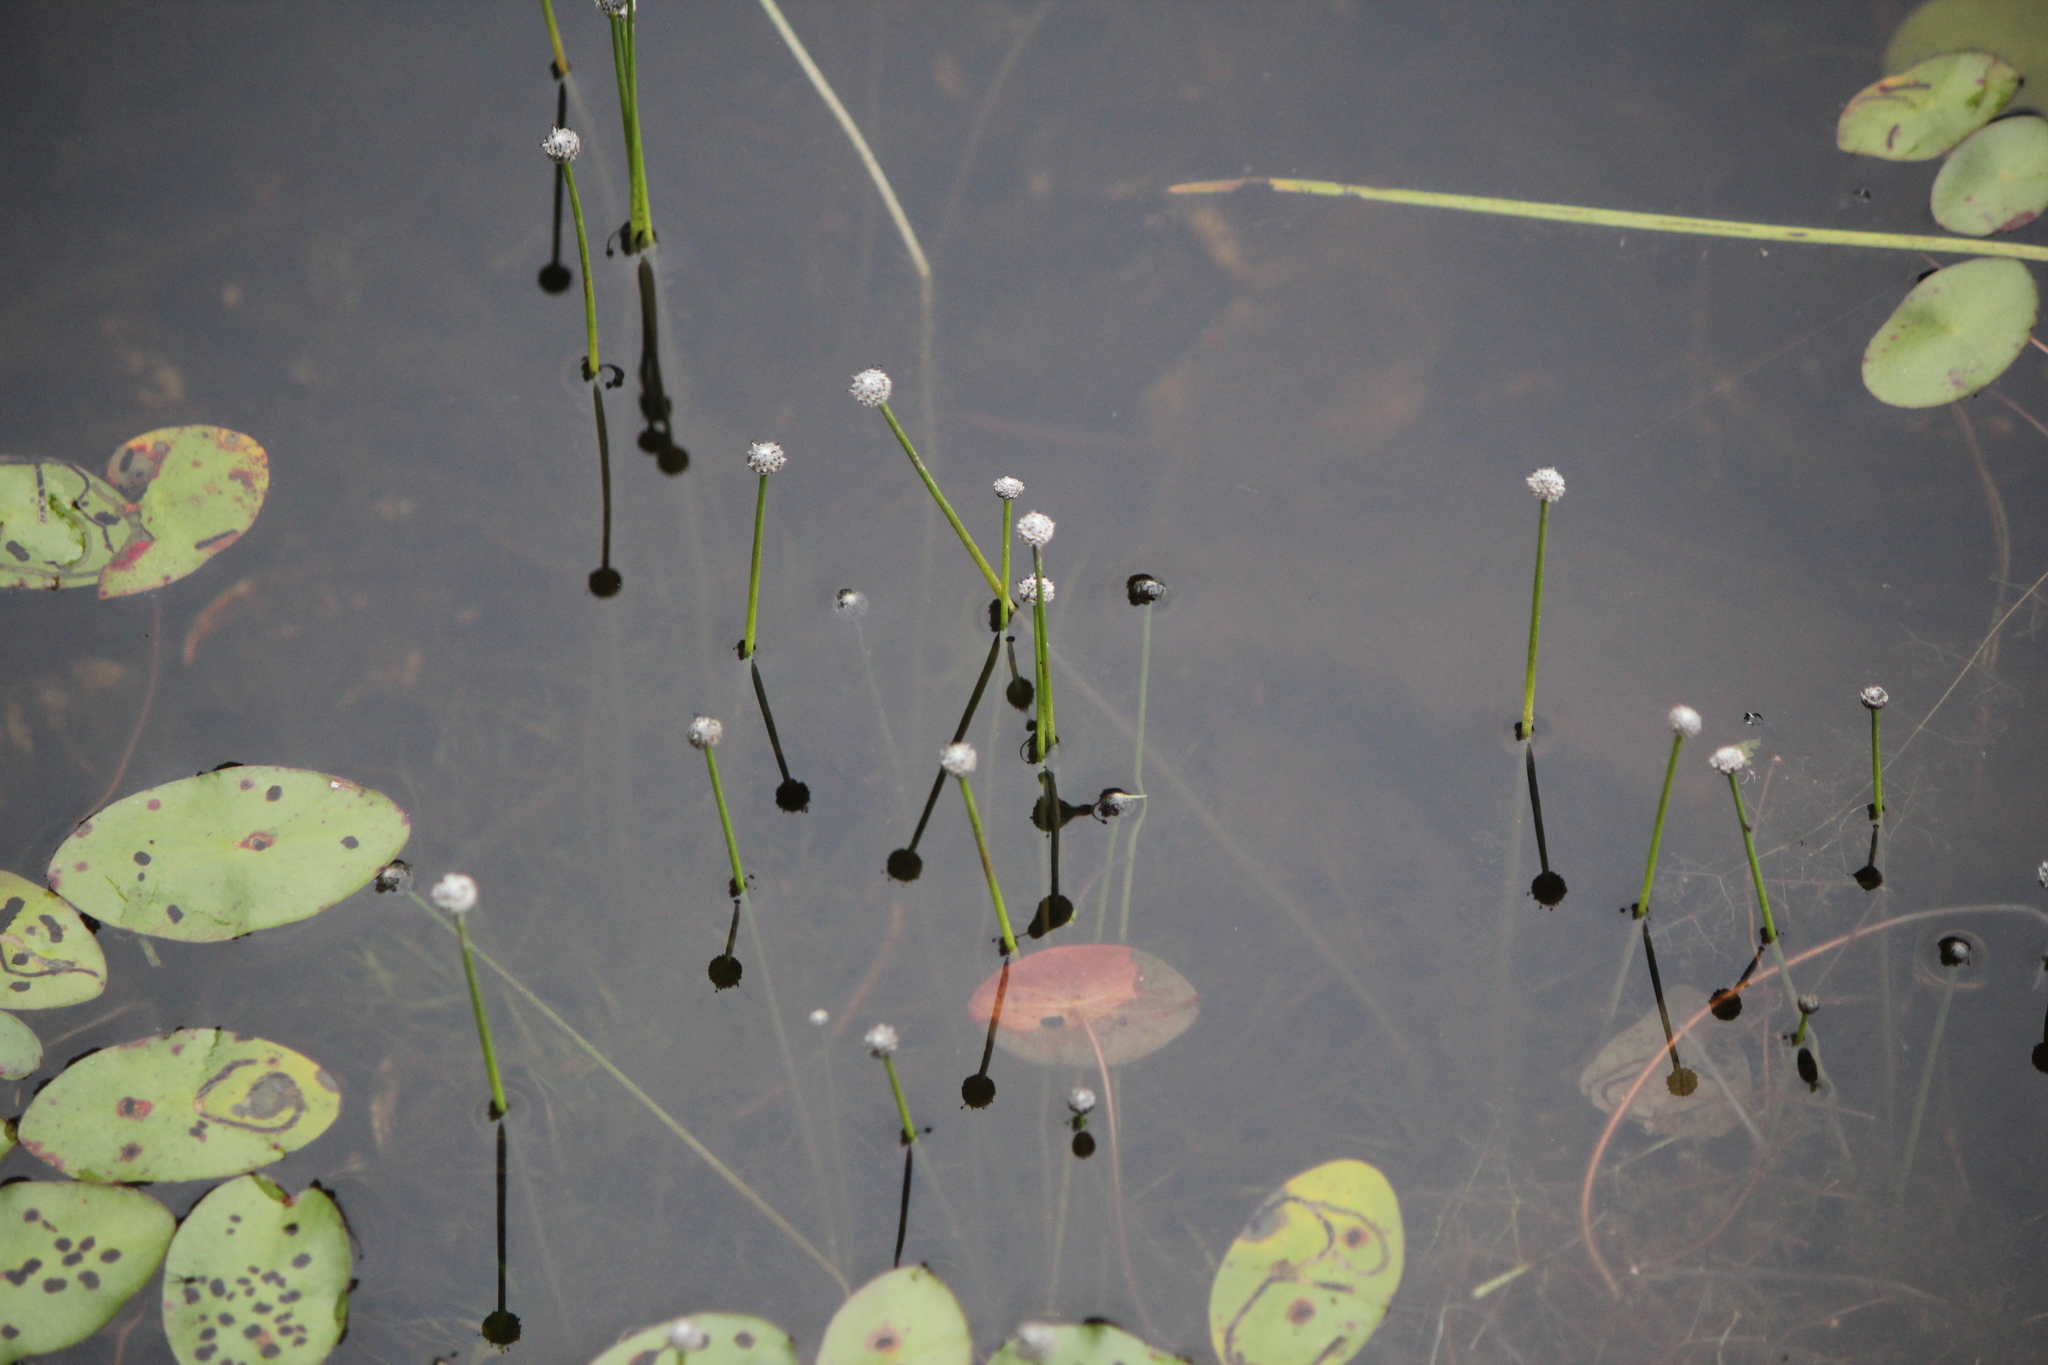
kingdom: Plantae
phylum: Tracheophyta
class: Liliopsida
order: Poales
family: Eriocaulaceae
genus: Eriocaulon
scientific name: Eriocaulon aquaticum
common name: Pipewort
